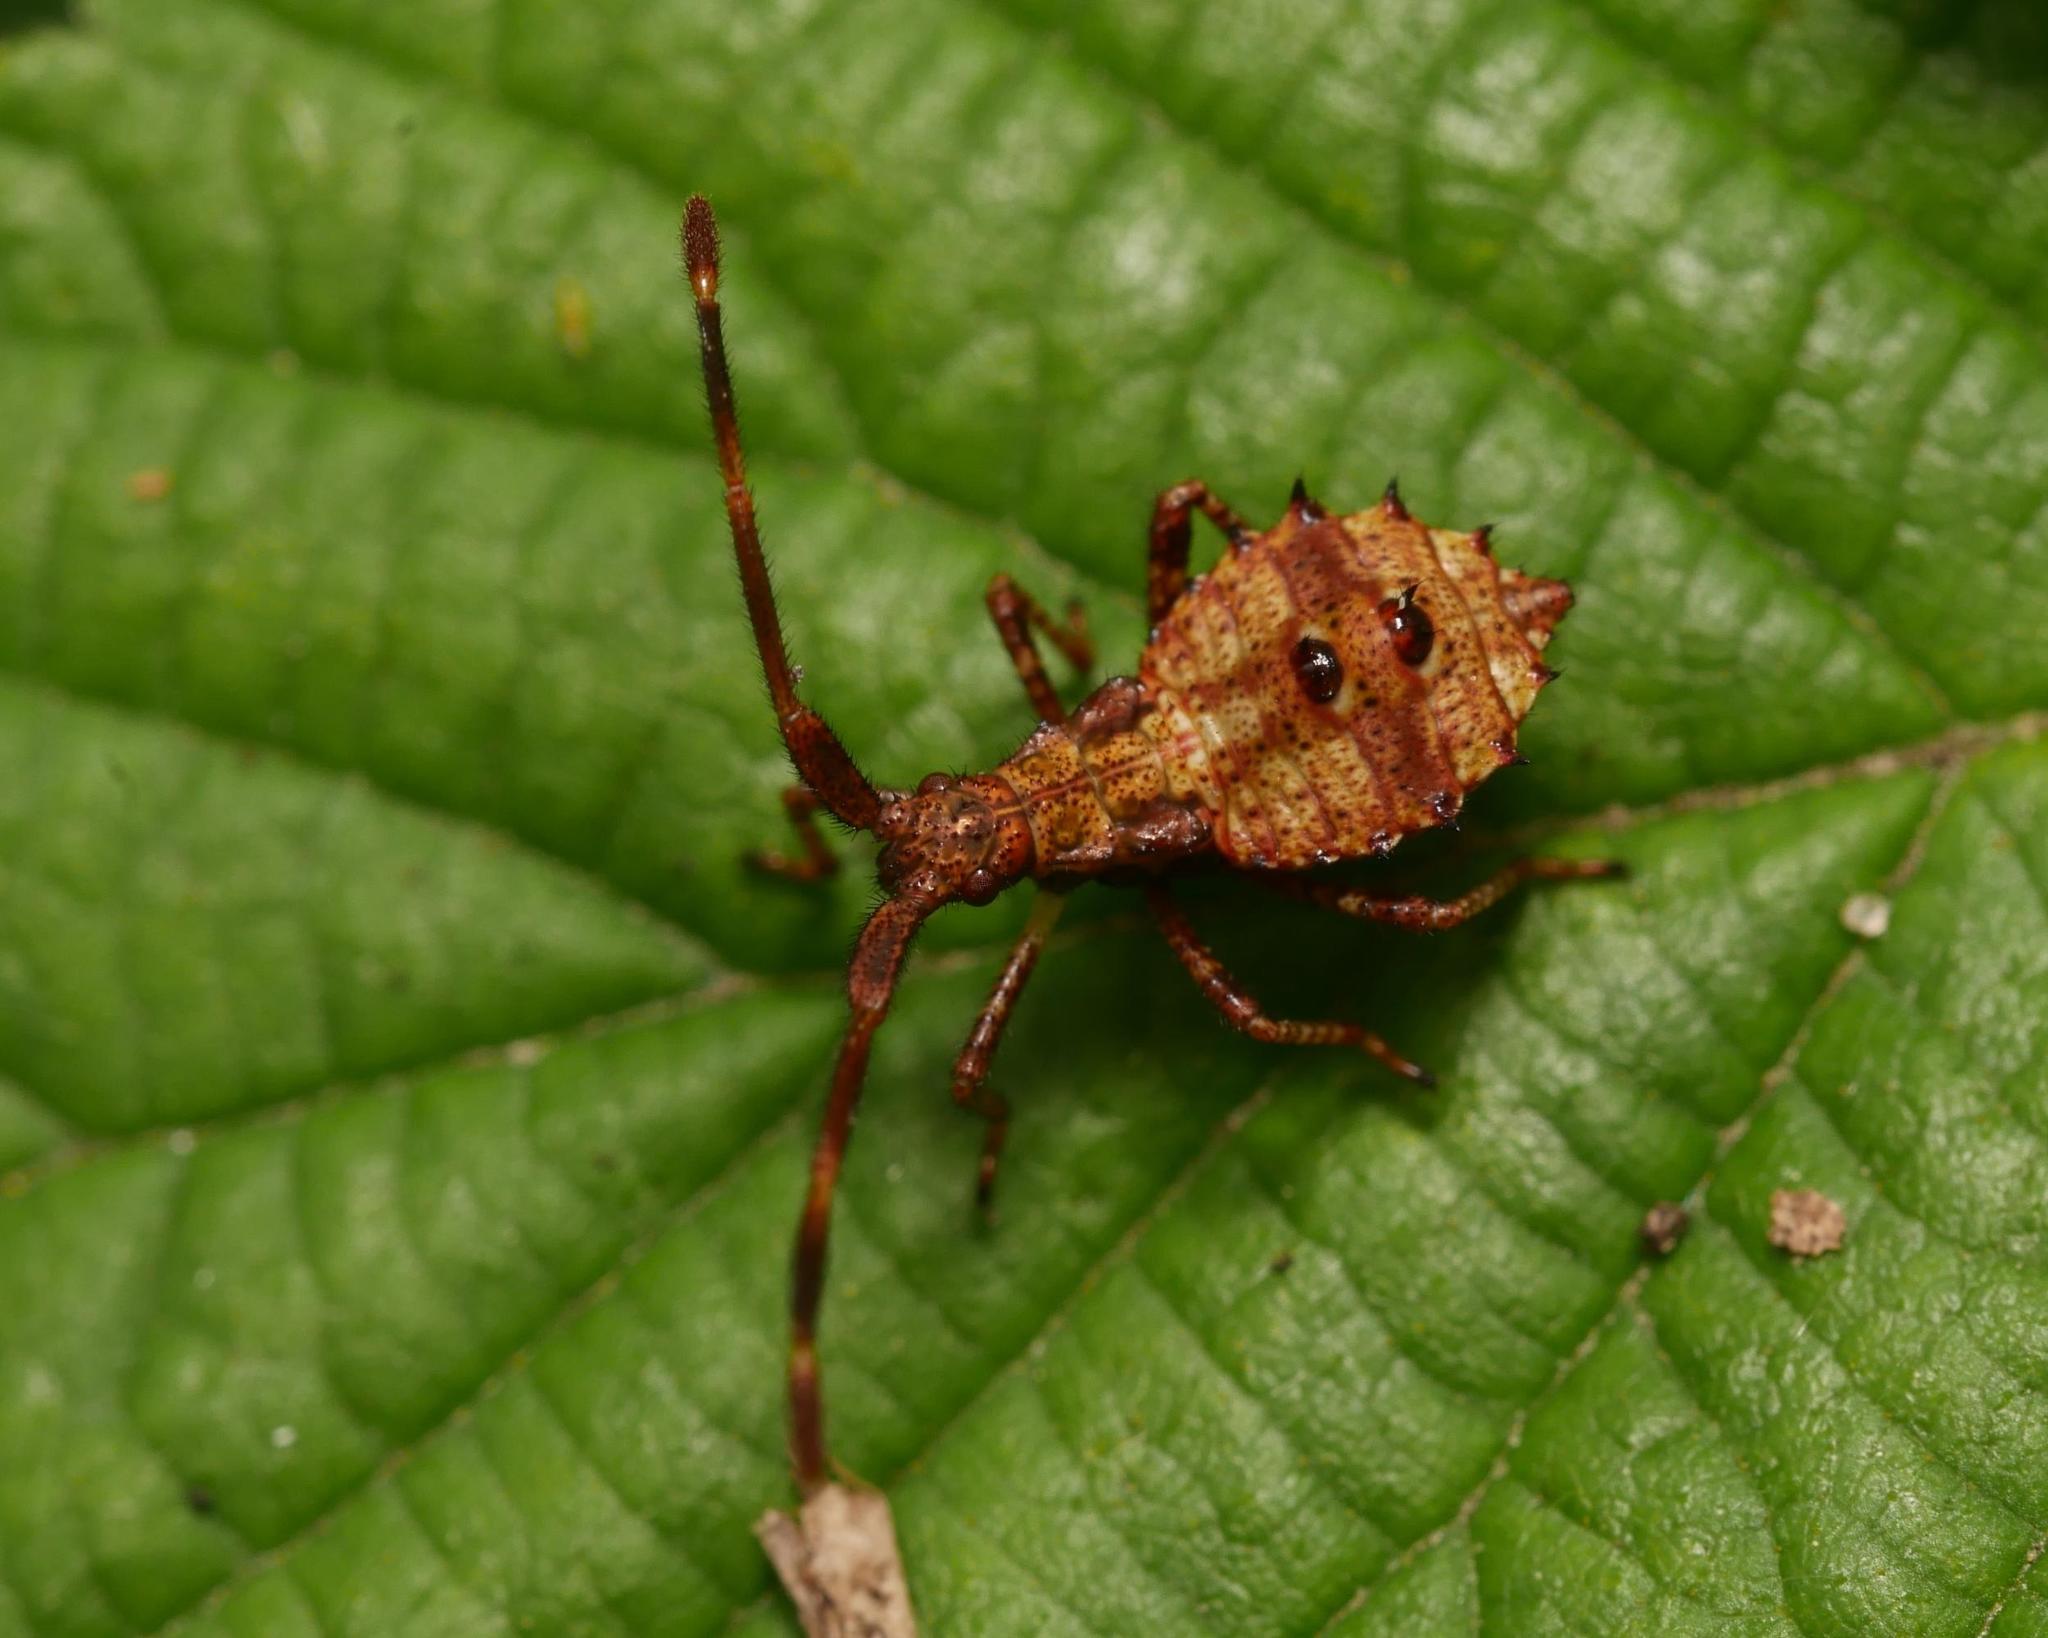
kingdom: Animalia
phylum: Arthropoda
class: Insecta
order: Hemiptera
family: Coreidae
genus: Coreus
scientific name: Coreus marginatus
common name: Dock bug
